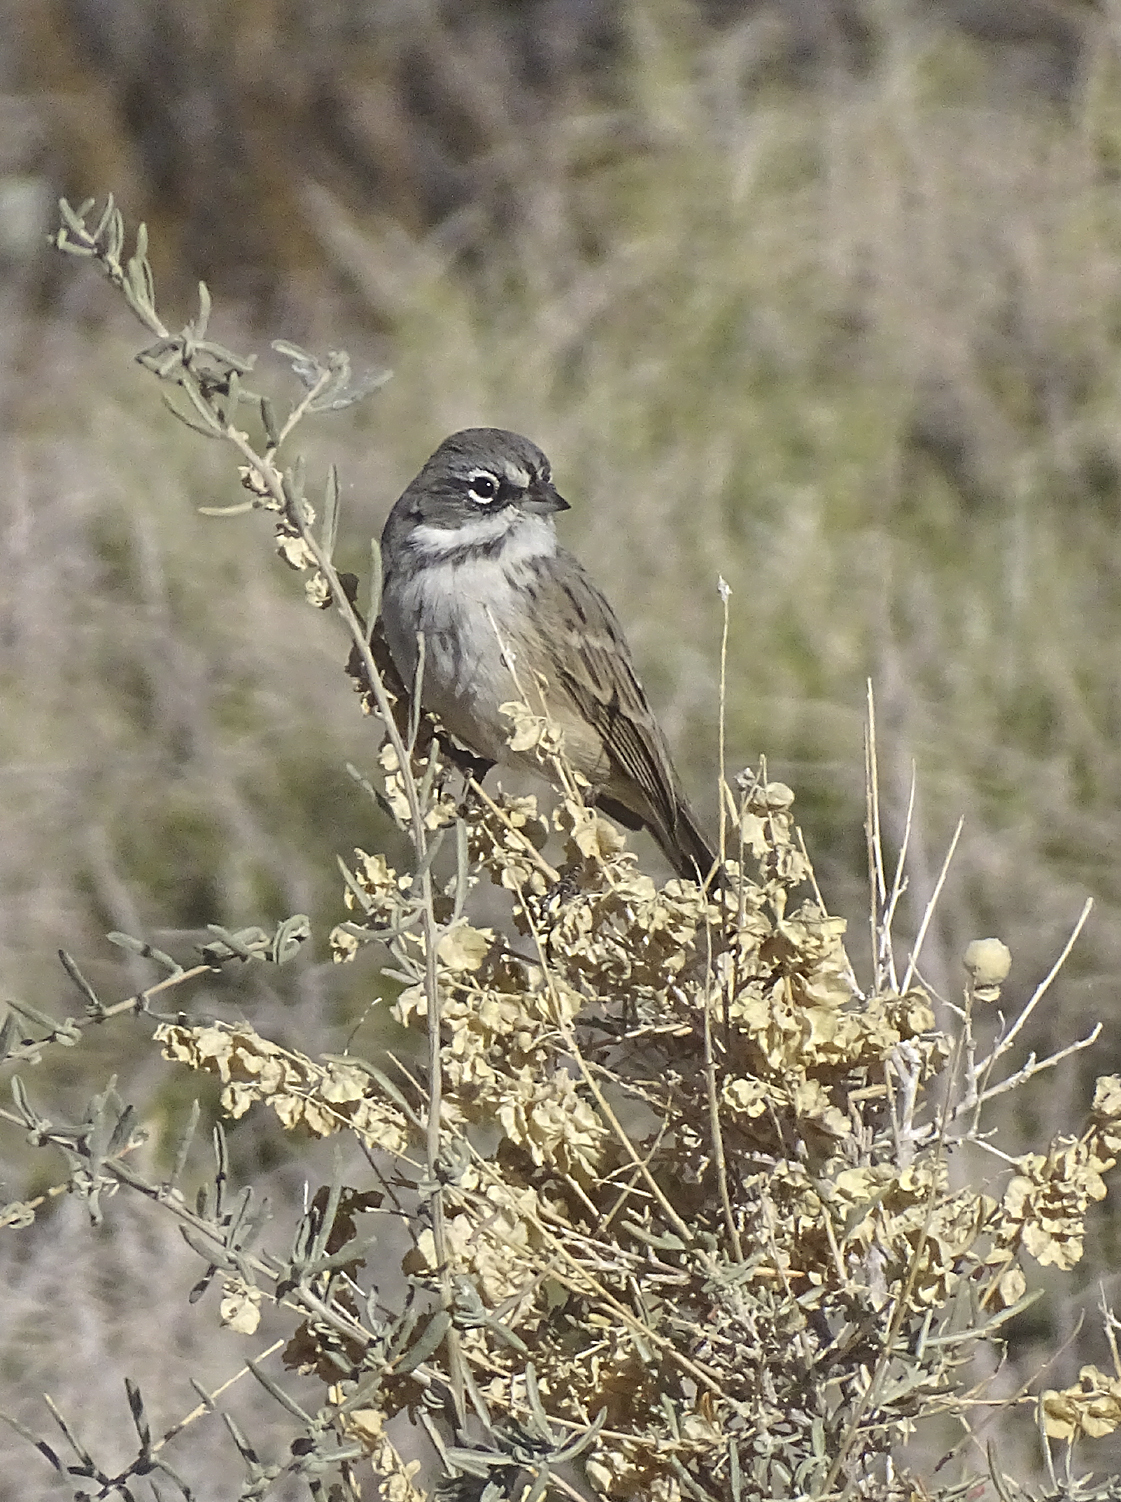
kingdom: Animalia
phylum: Chordata
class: Aves
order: Passeriformes
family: Passerellidae
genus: Artemisiospiza
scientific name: Artemisiospiza
